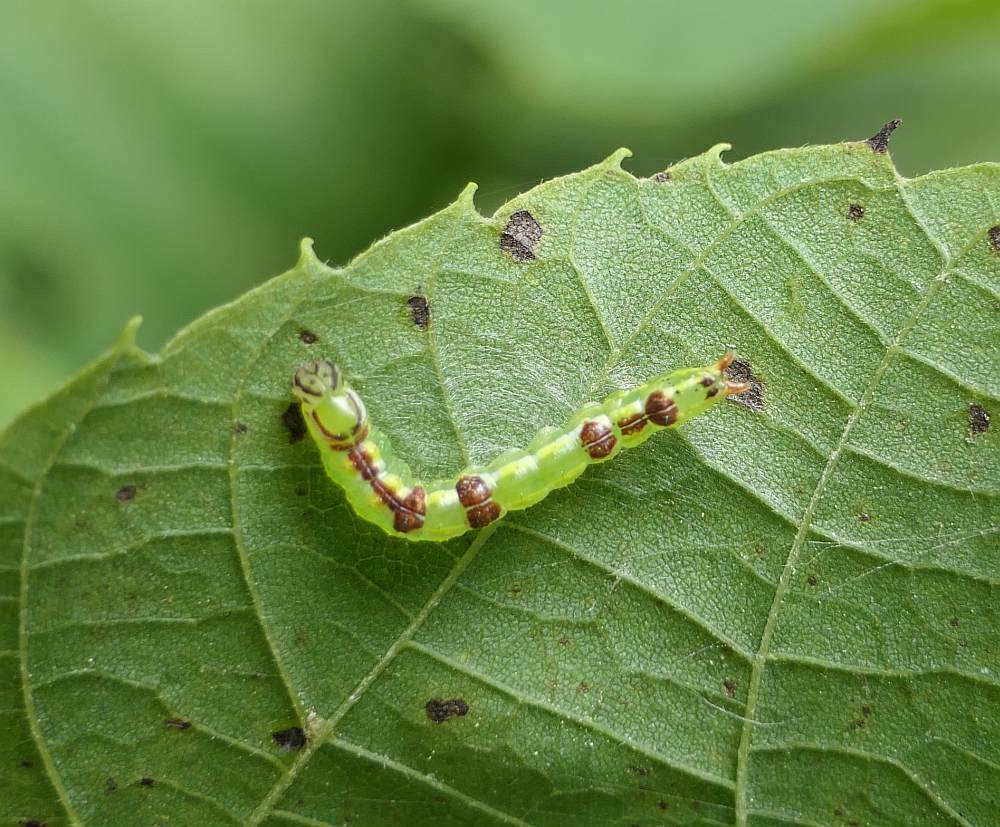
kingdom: Animalia
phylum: Arthropoda
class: Insecta
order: Lepidoptera
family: Notodontidae
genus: Lochmaeus
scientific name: Lochmaeus bilineata
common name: Double-lined prominent
